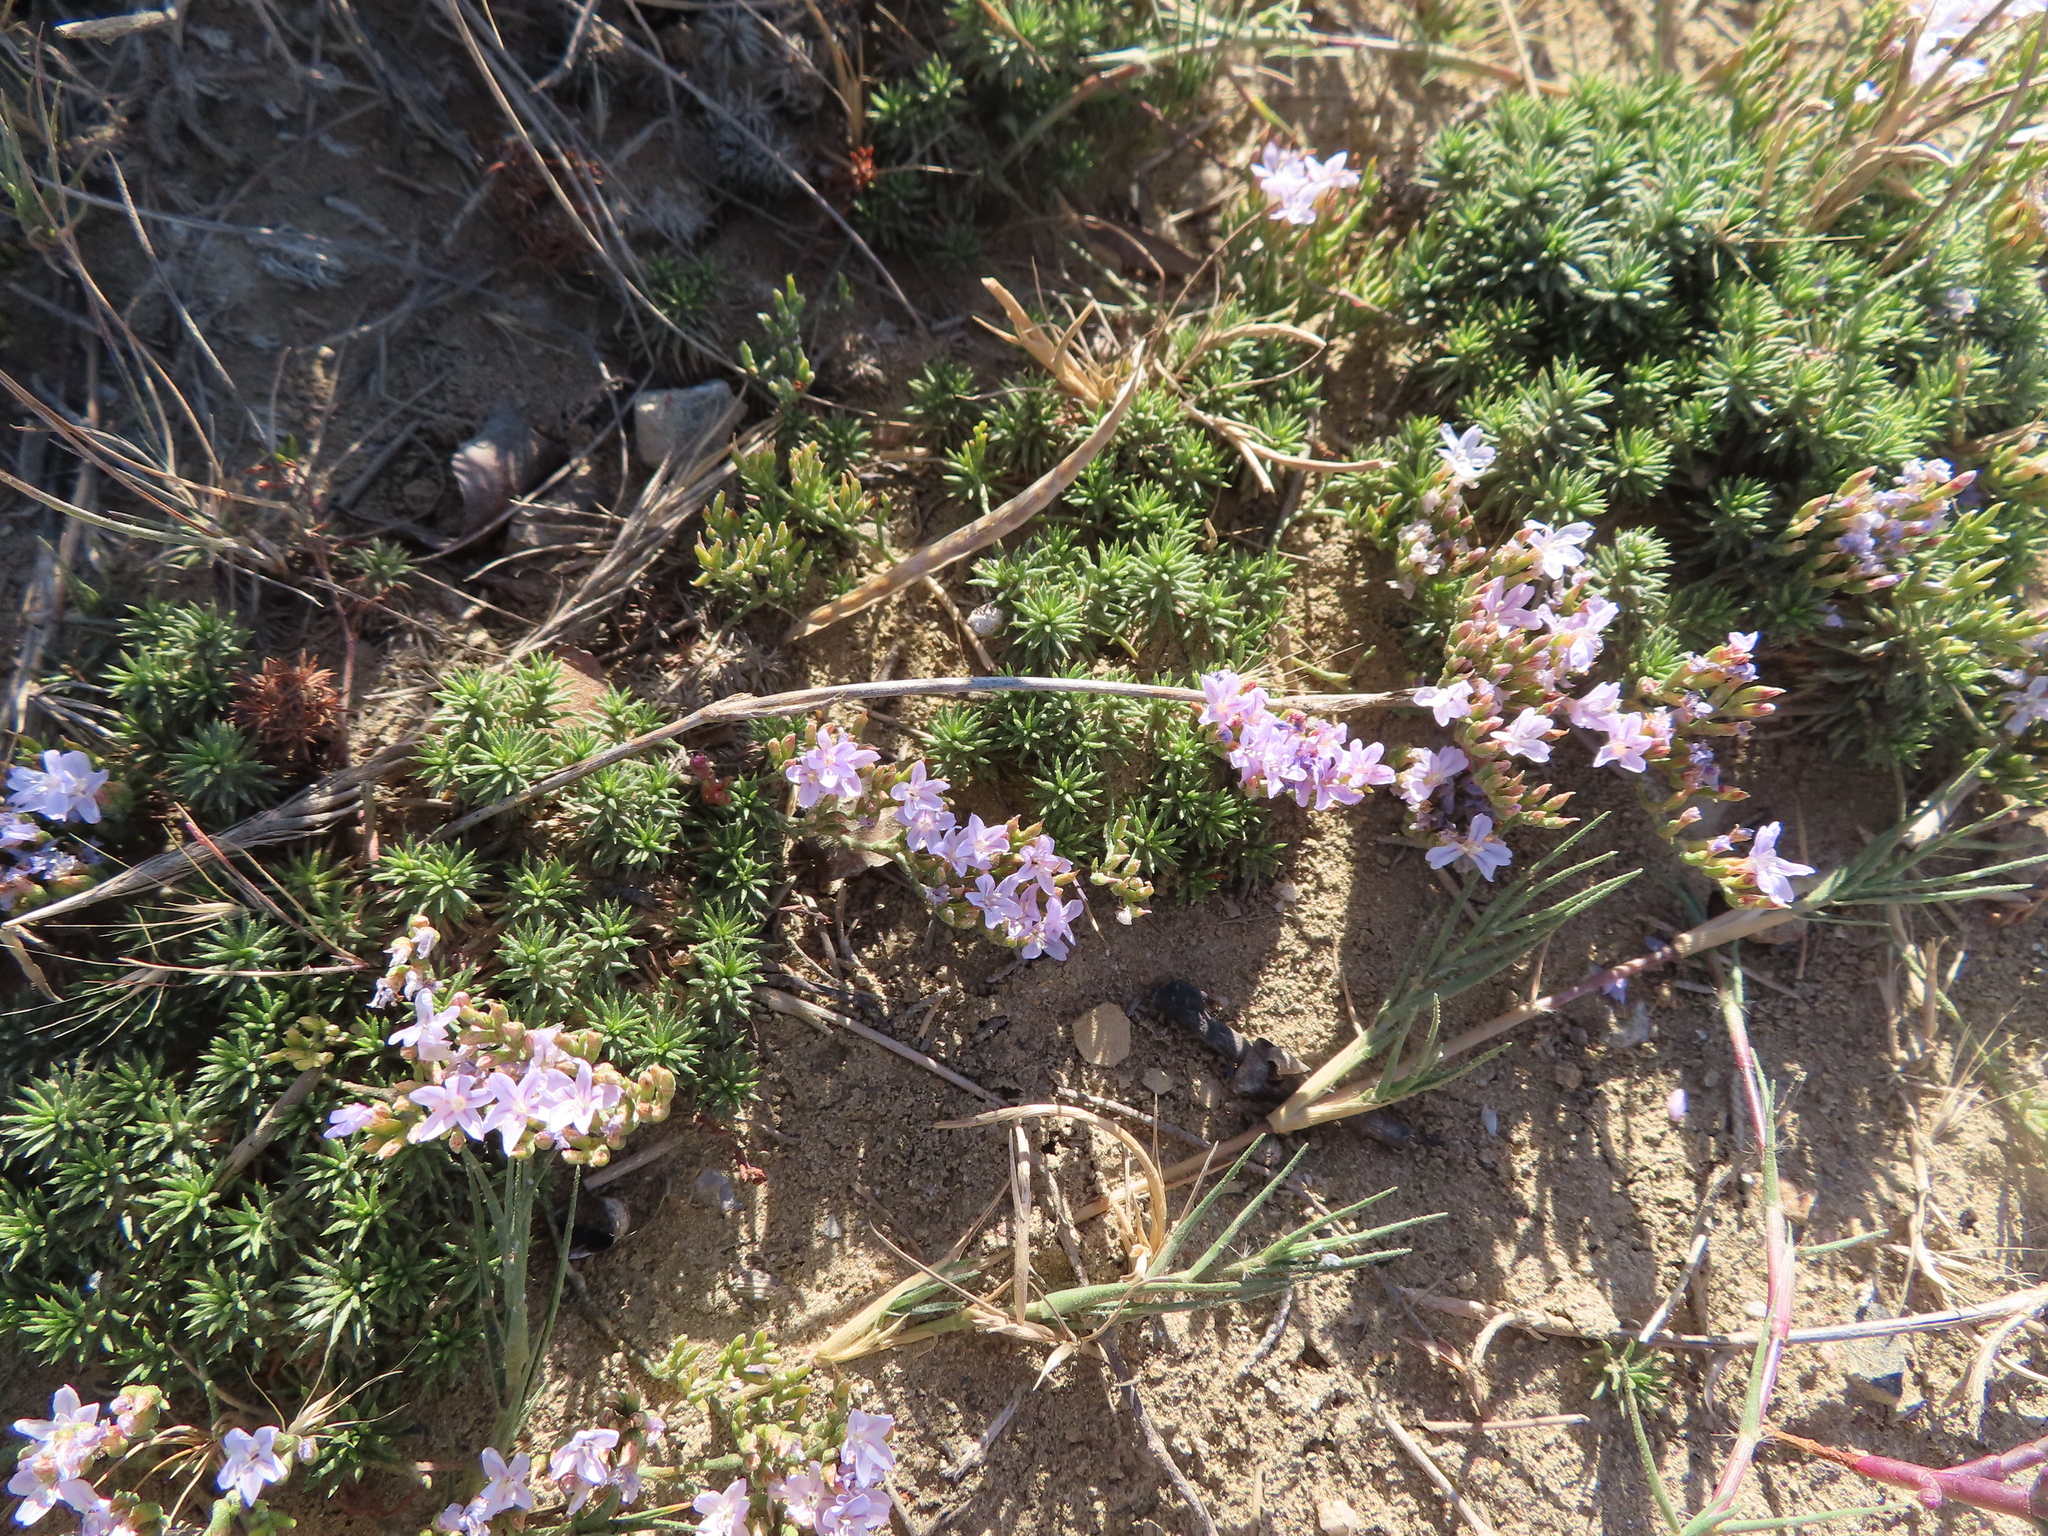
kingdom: Plantae
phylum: Tracheophyta
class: Magnoliopsida
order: Caryophyllales
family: Plumbaginaceae
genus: Limonium
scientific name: Limonium kraussianum
